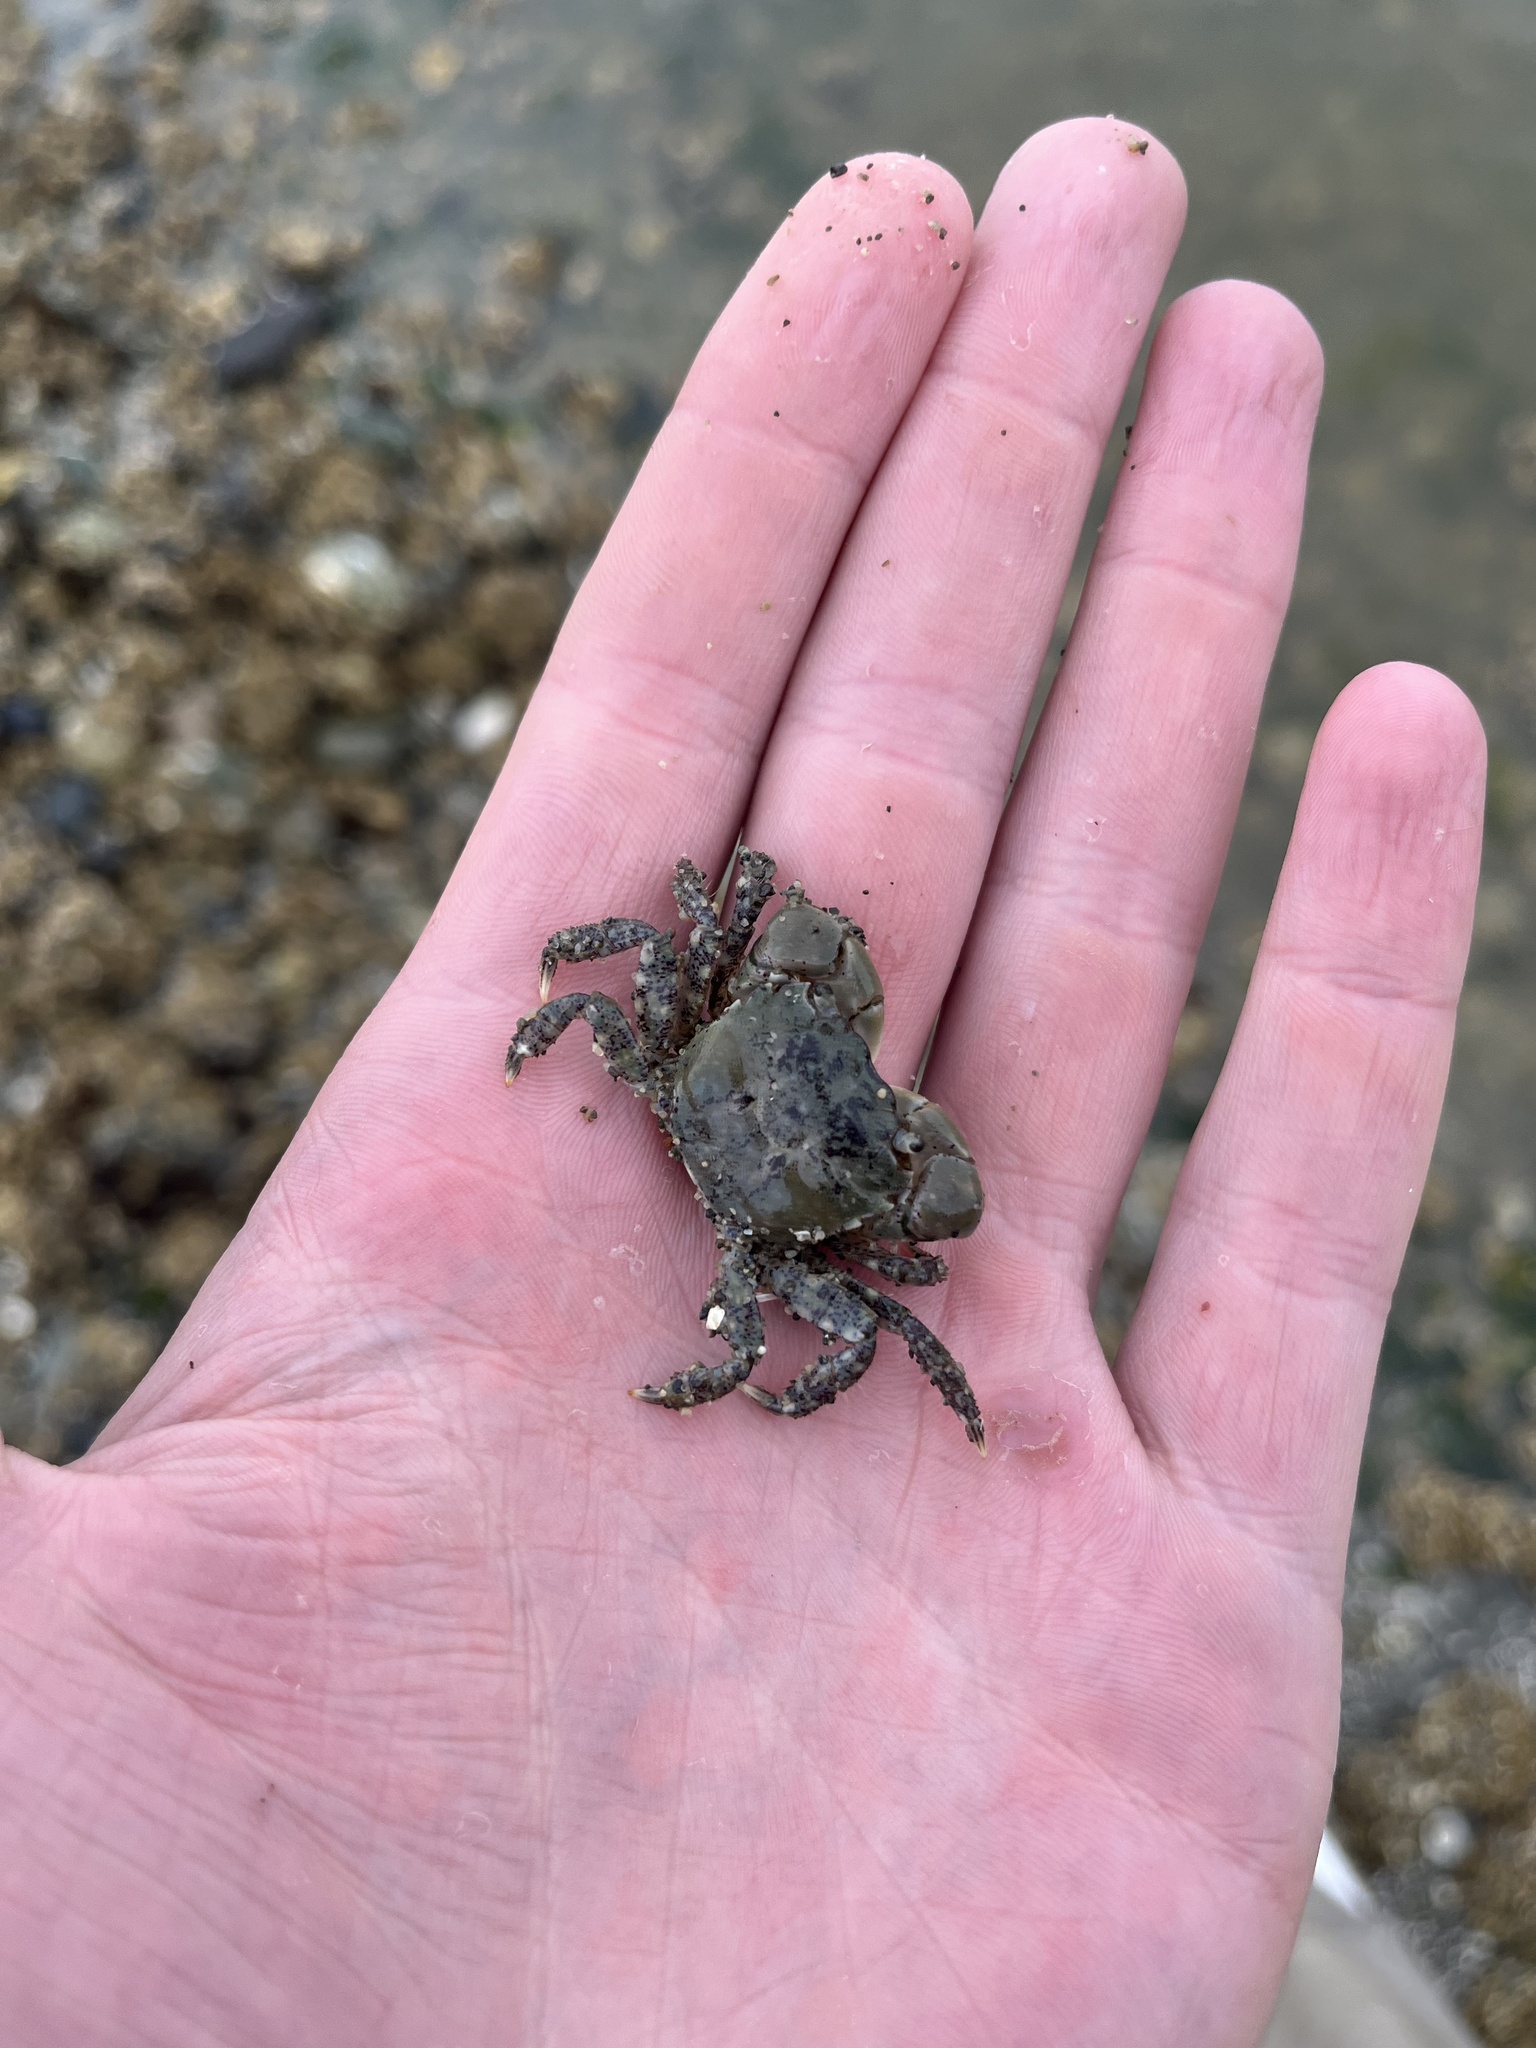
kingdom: Animalia
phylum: Arthropoda
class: Malacostraca
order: Decapoda
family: Varunidae
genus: Hemigrapsus
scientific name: Hemigrapsus oregonensis
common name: Yellow shore crab
